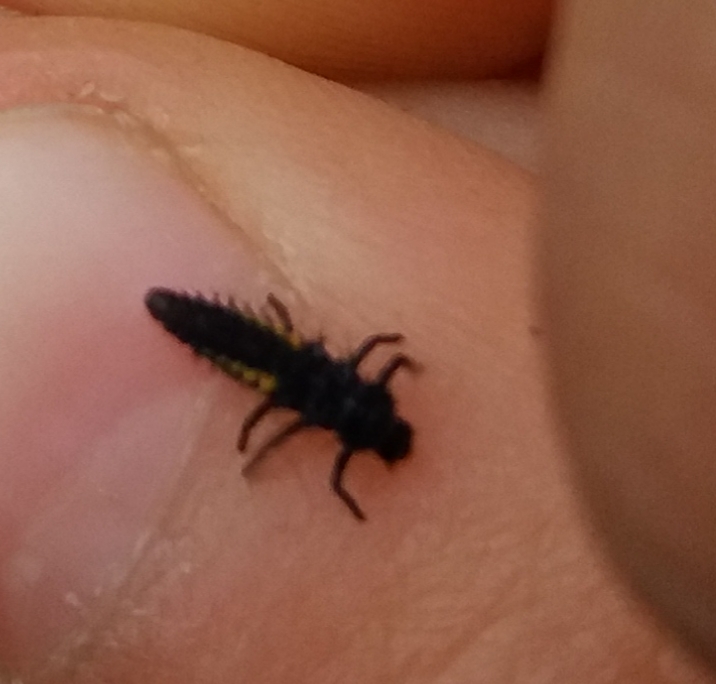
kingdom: Animalia
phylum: Arthropoda
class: Insecta
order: Coleoptera
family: Coccinellidae
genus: Harmonia
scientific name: Harmonia axyridis
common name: Harlequin ladybird
